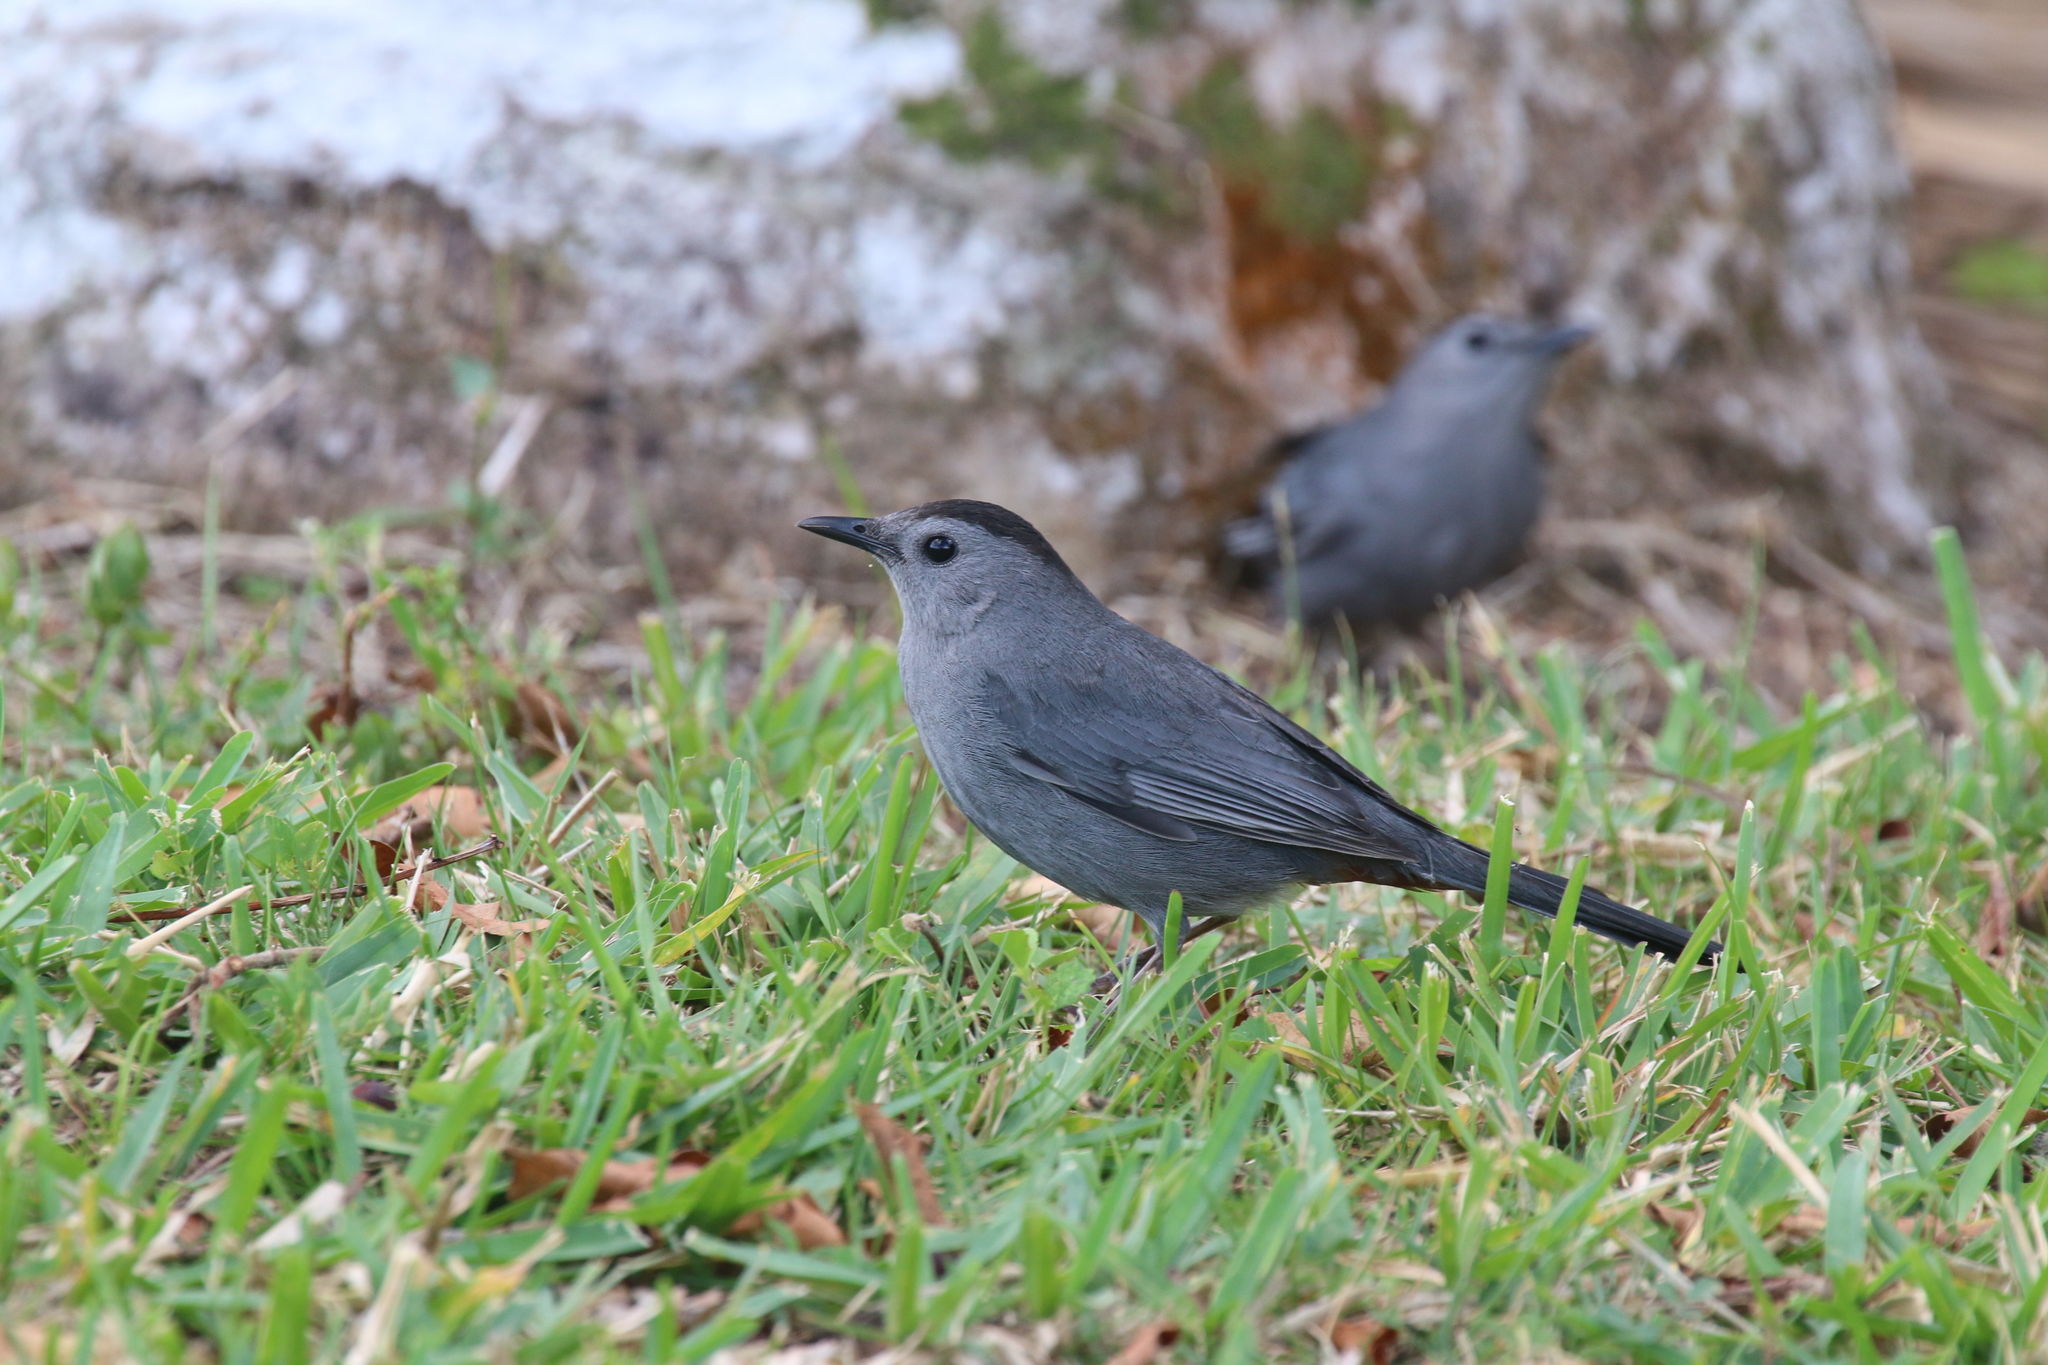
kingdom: Animalia
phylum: Chordata
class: Aves
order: Passeriformes
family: Mimidae
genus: Dumetella
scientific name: Dumetella carolinensis
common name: Gray catbird
